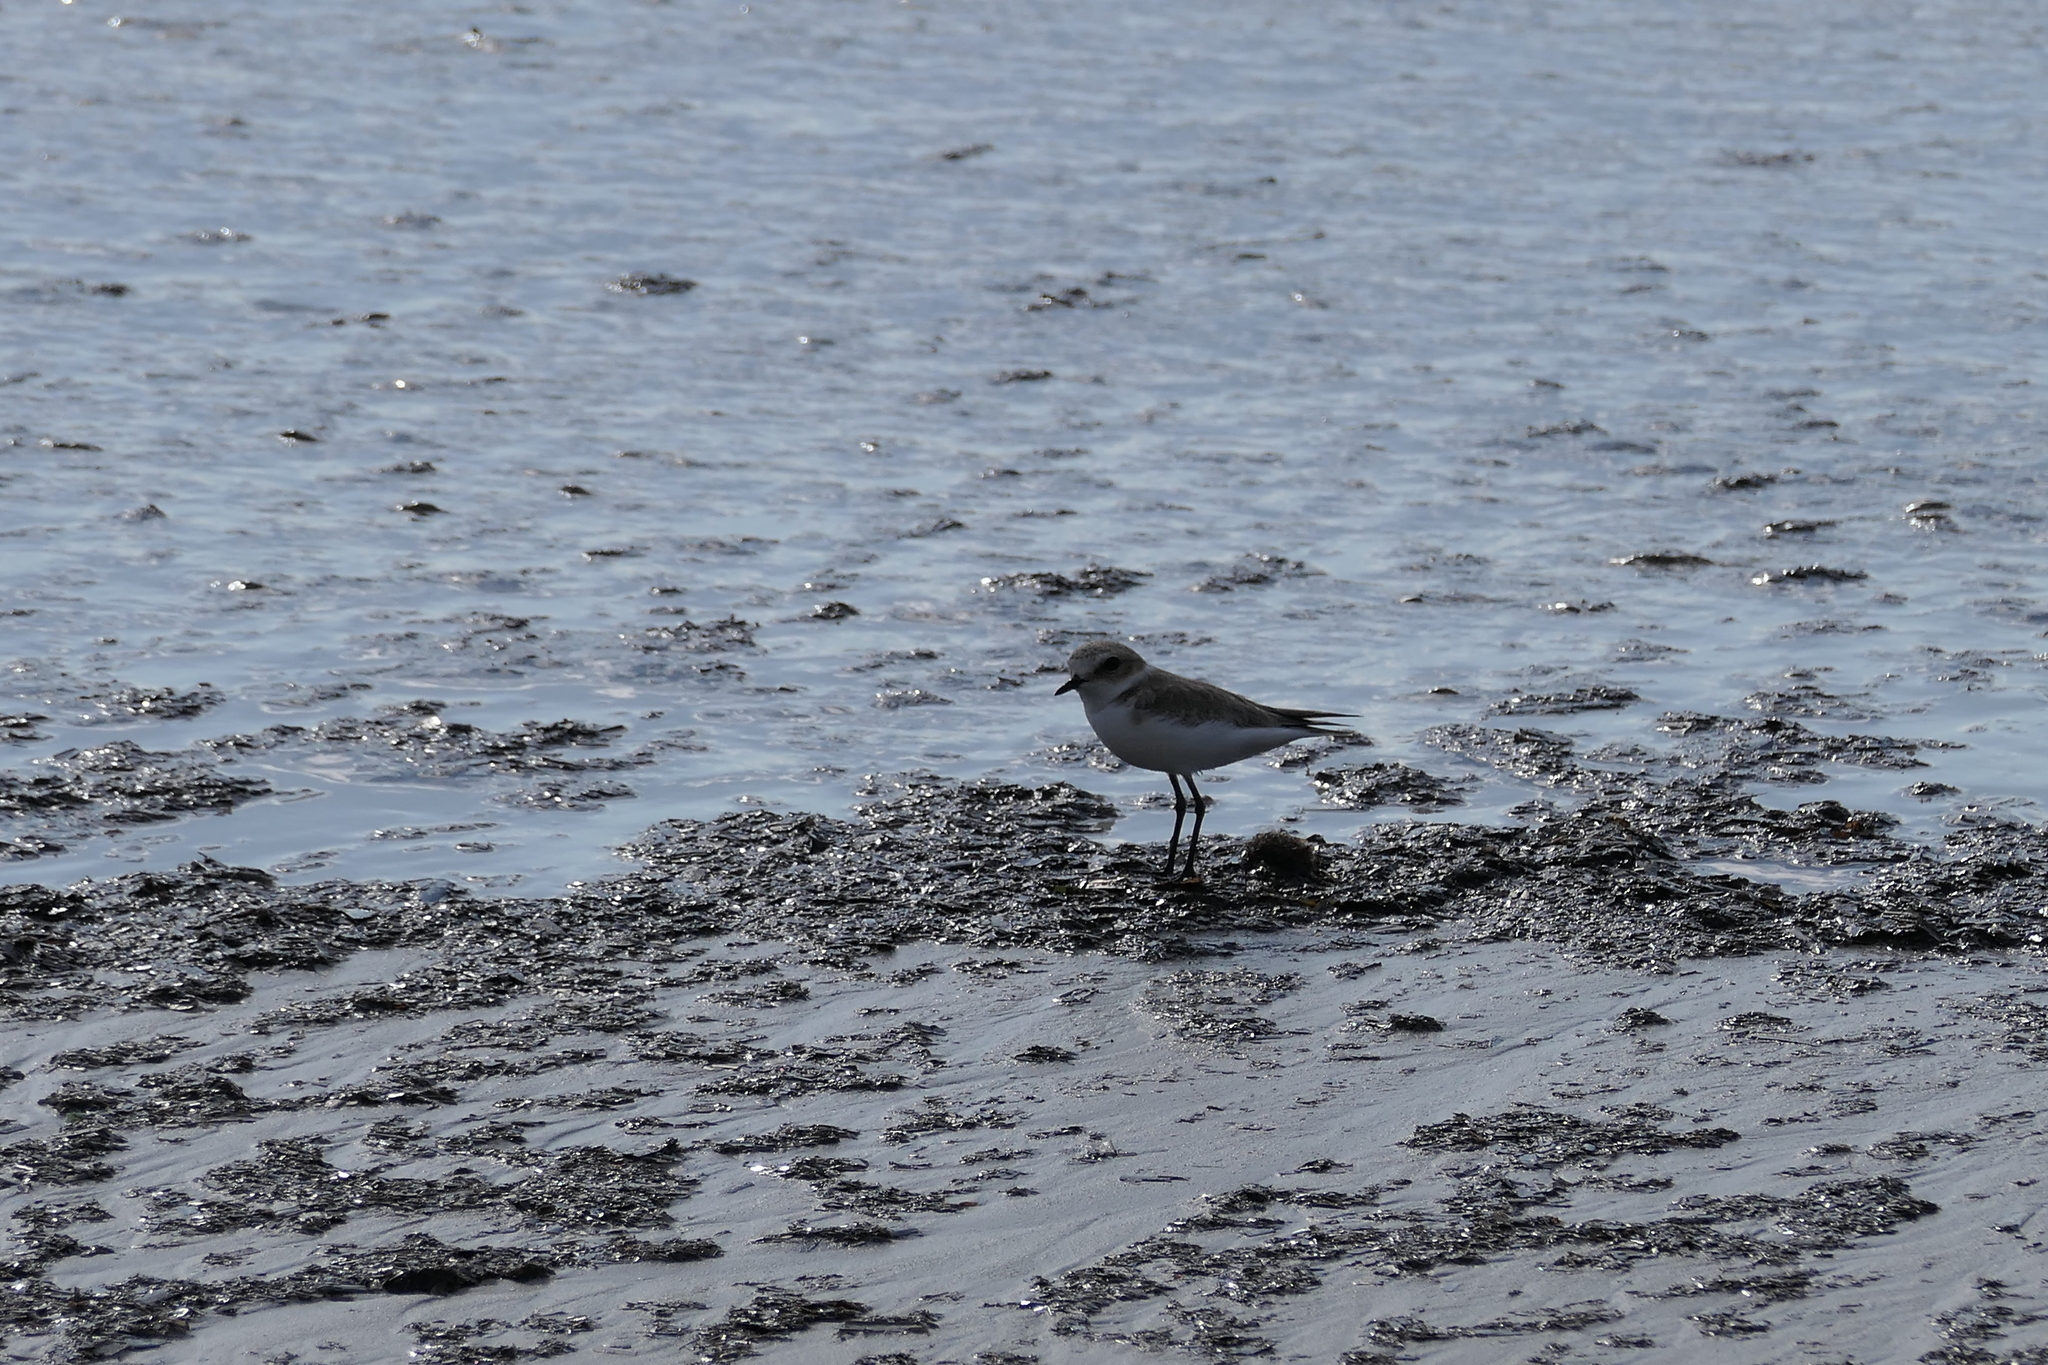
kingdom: Animalia
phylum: Chordata
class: Aves
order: Charadriiformes
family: Charadriidae
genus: Charadrius
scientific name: Charadrius alexandrinus
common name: Kentish plover
